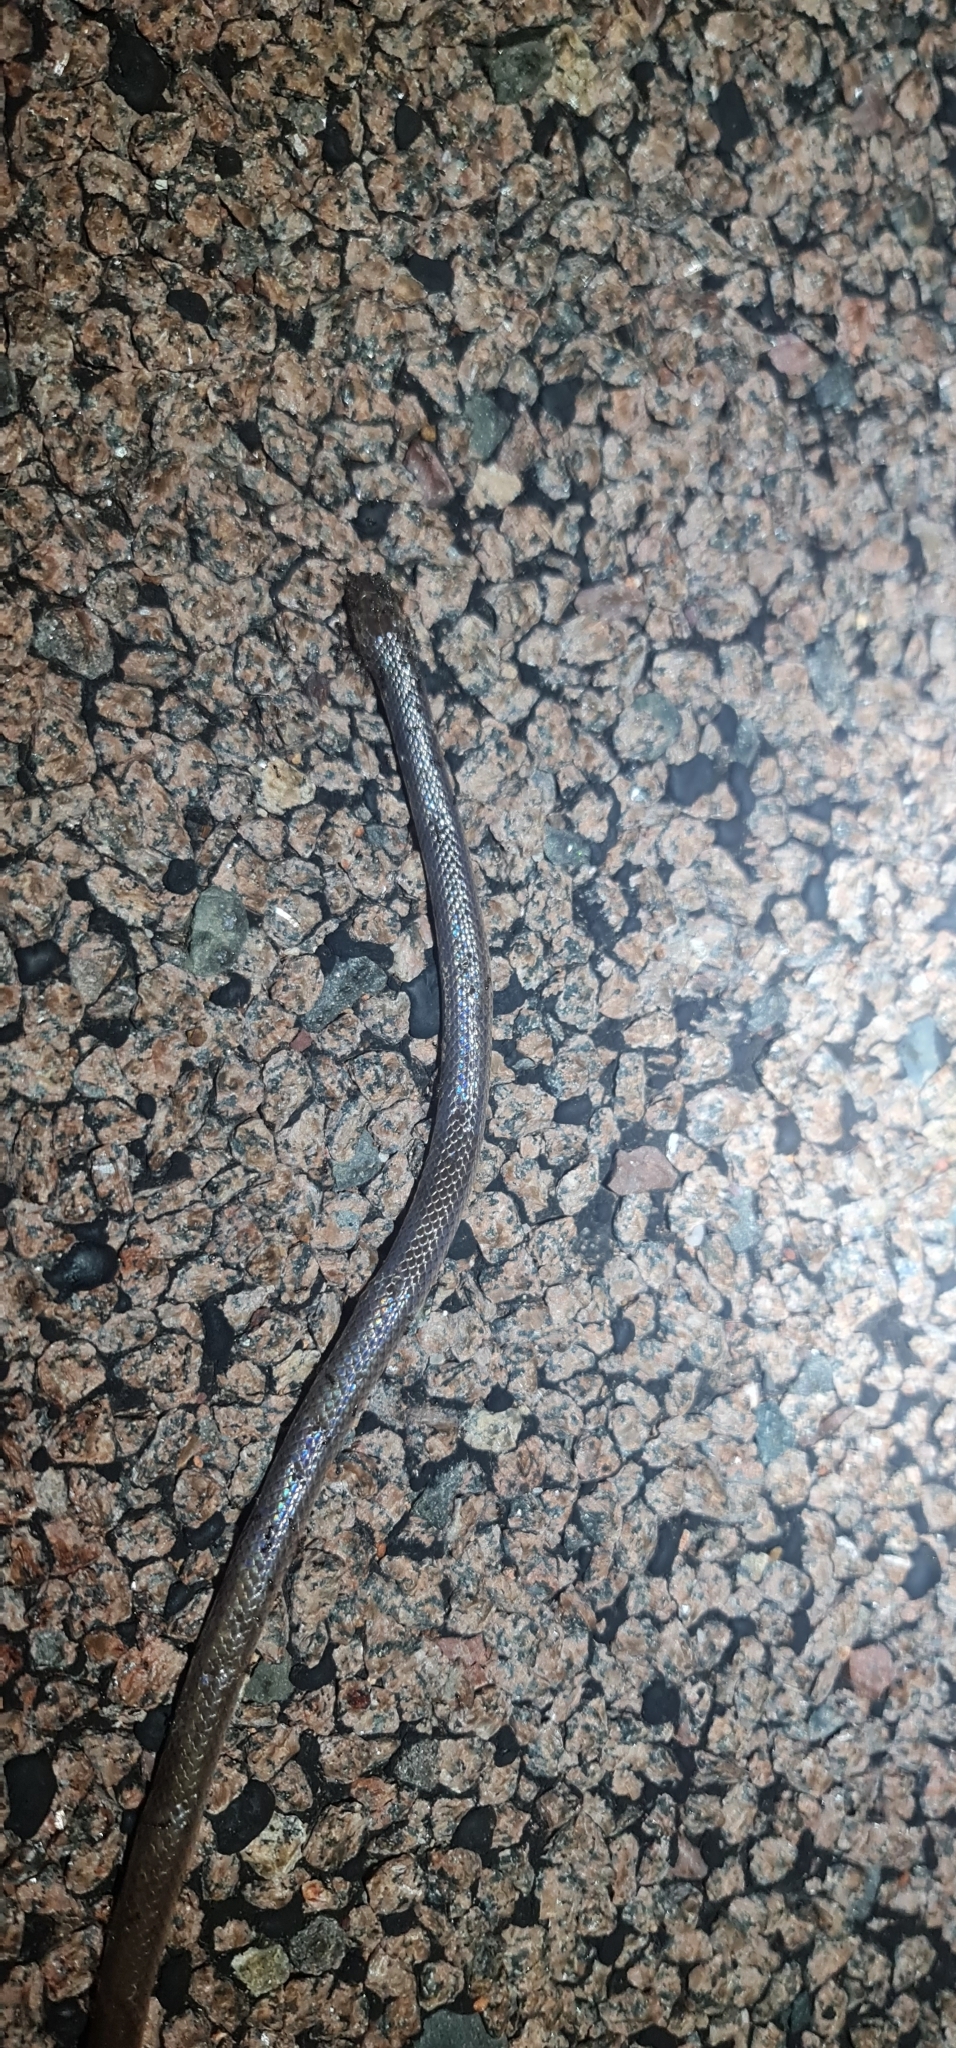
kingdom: Animalia
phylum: Chordata
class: Squamata
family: Elapidae
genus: Cryptophis
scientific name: Cryptophis pallidiceps
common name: Northern small-eyed snake
